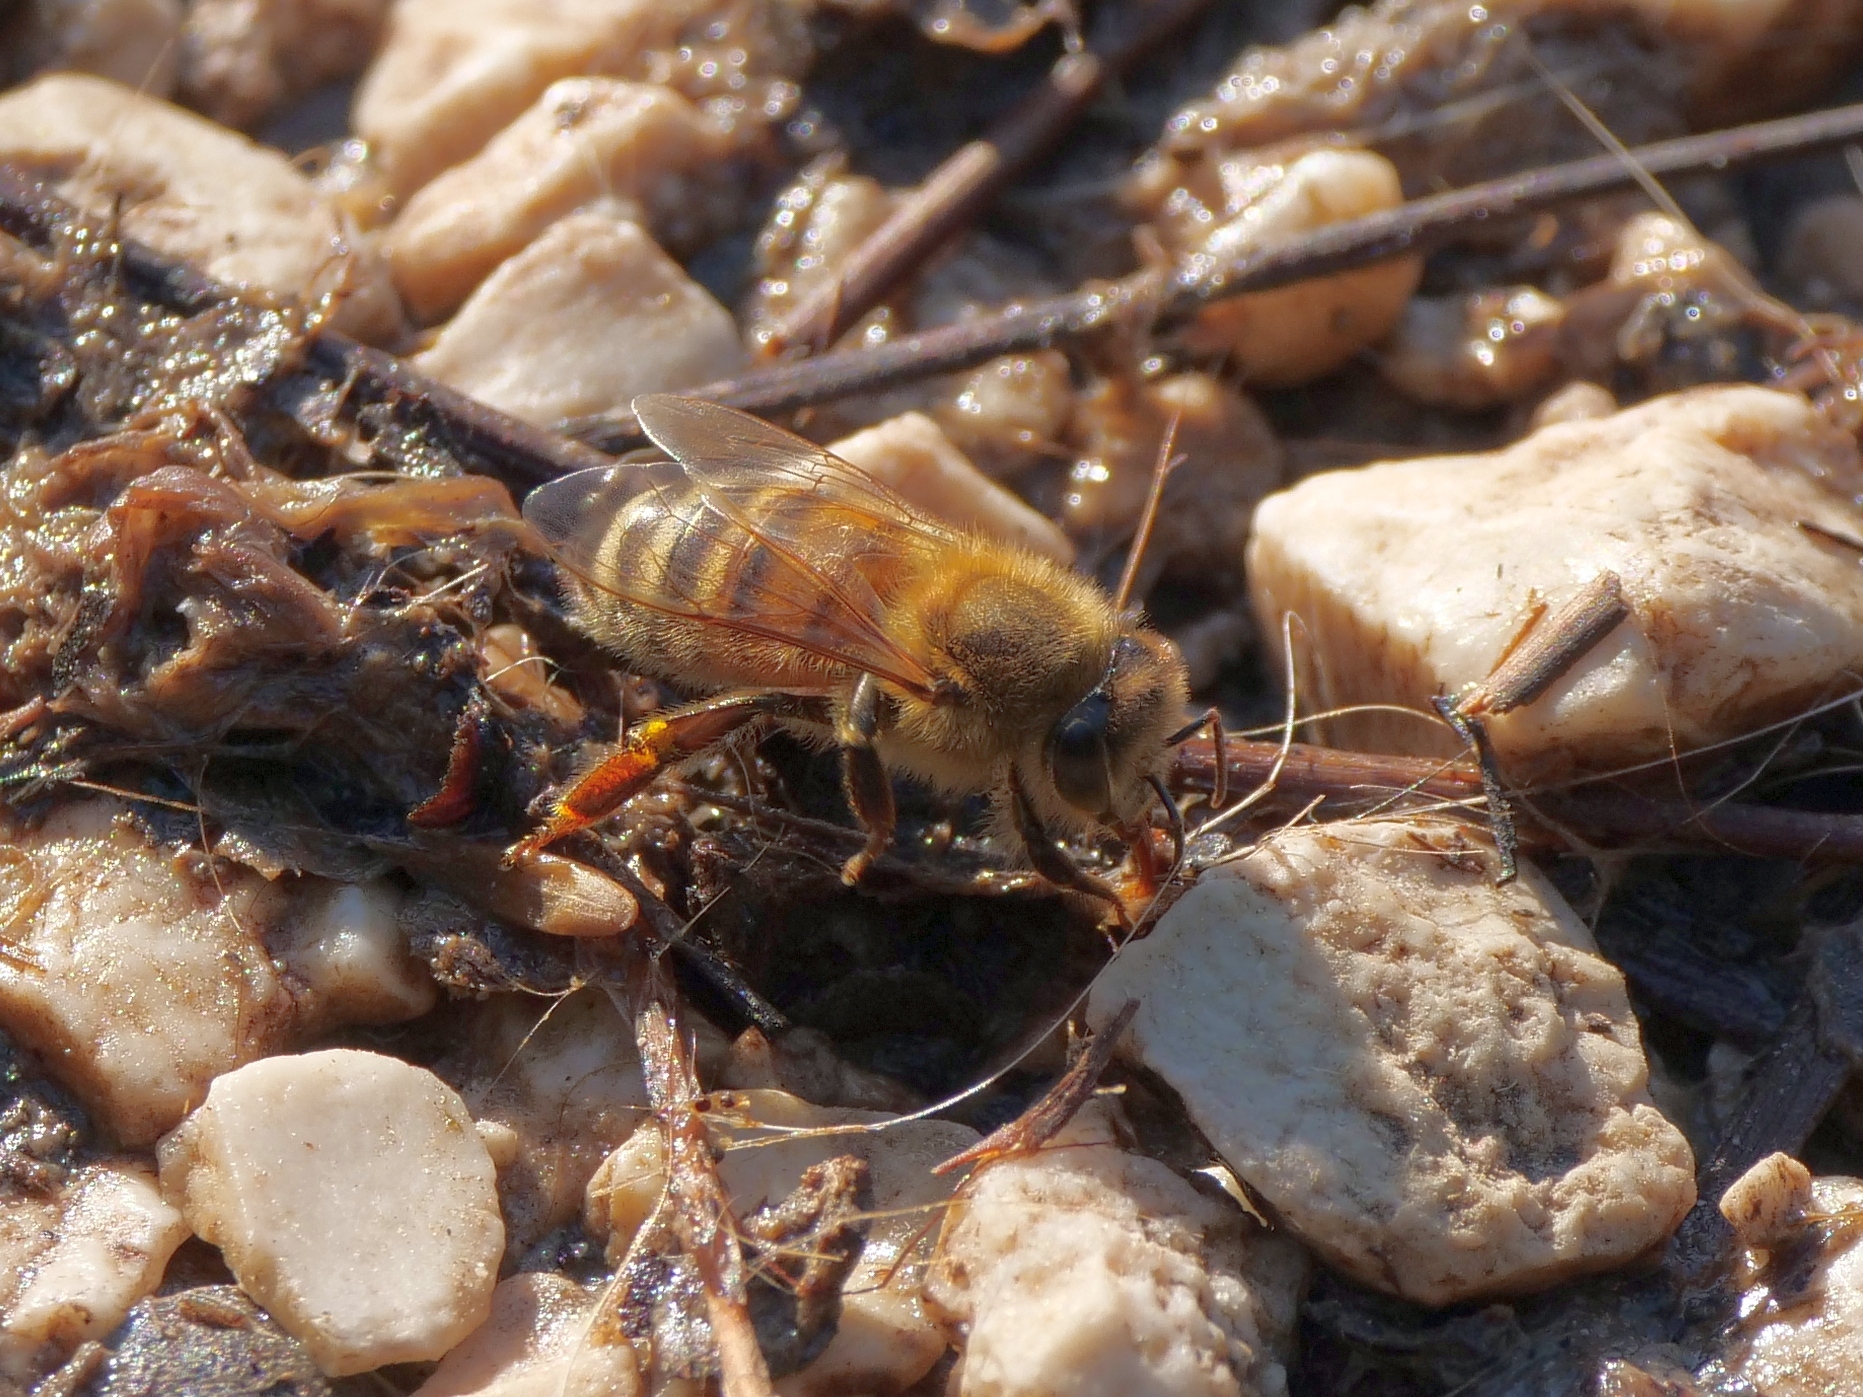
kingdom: Animalia
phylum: Arthropoda
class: Insecta
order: Hymenoptera
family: Apidae
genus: Apis
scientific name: Apis mellifera
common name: Honey bee
